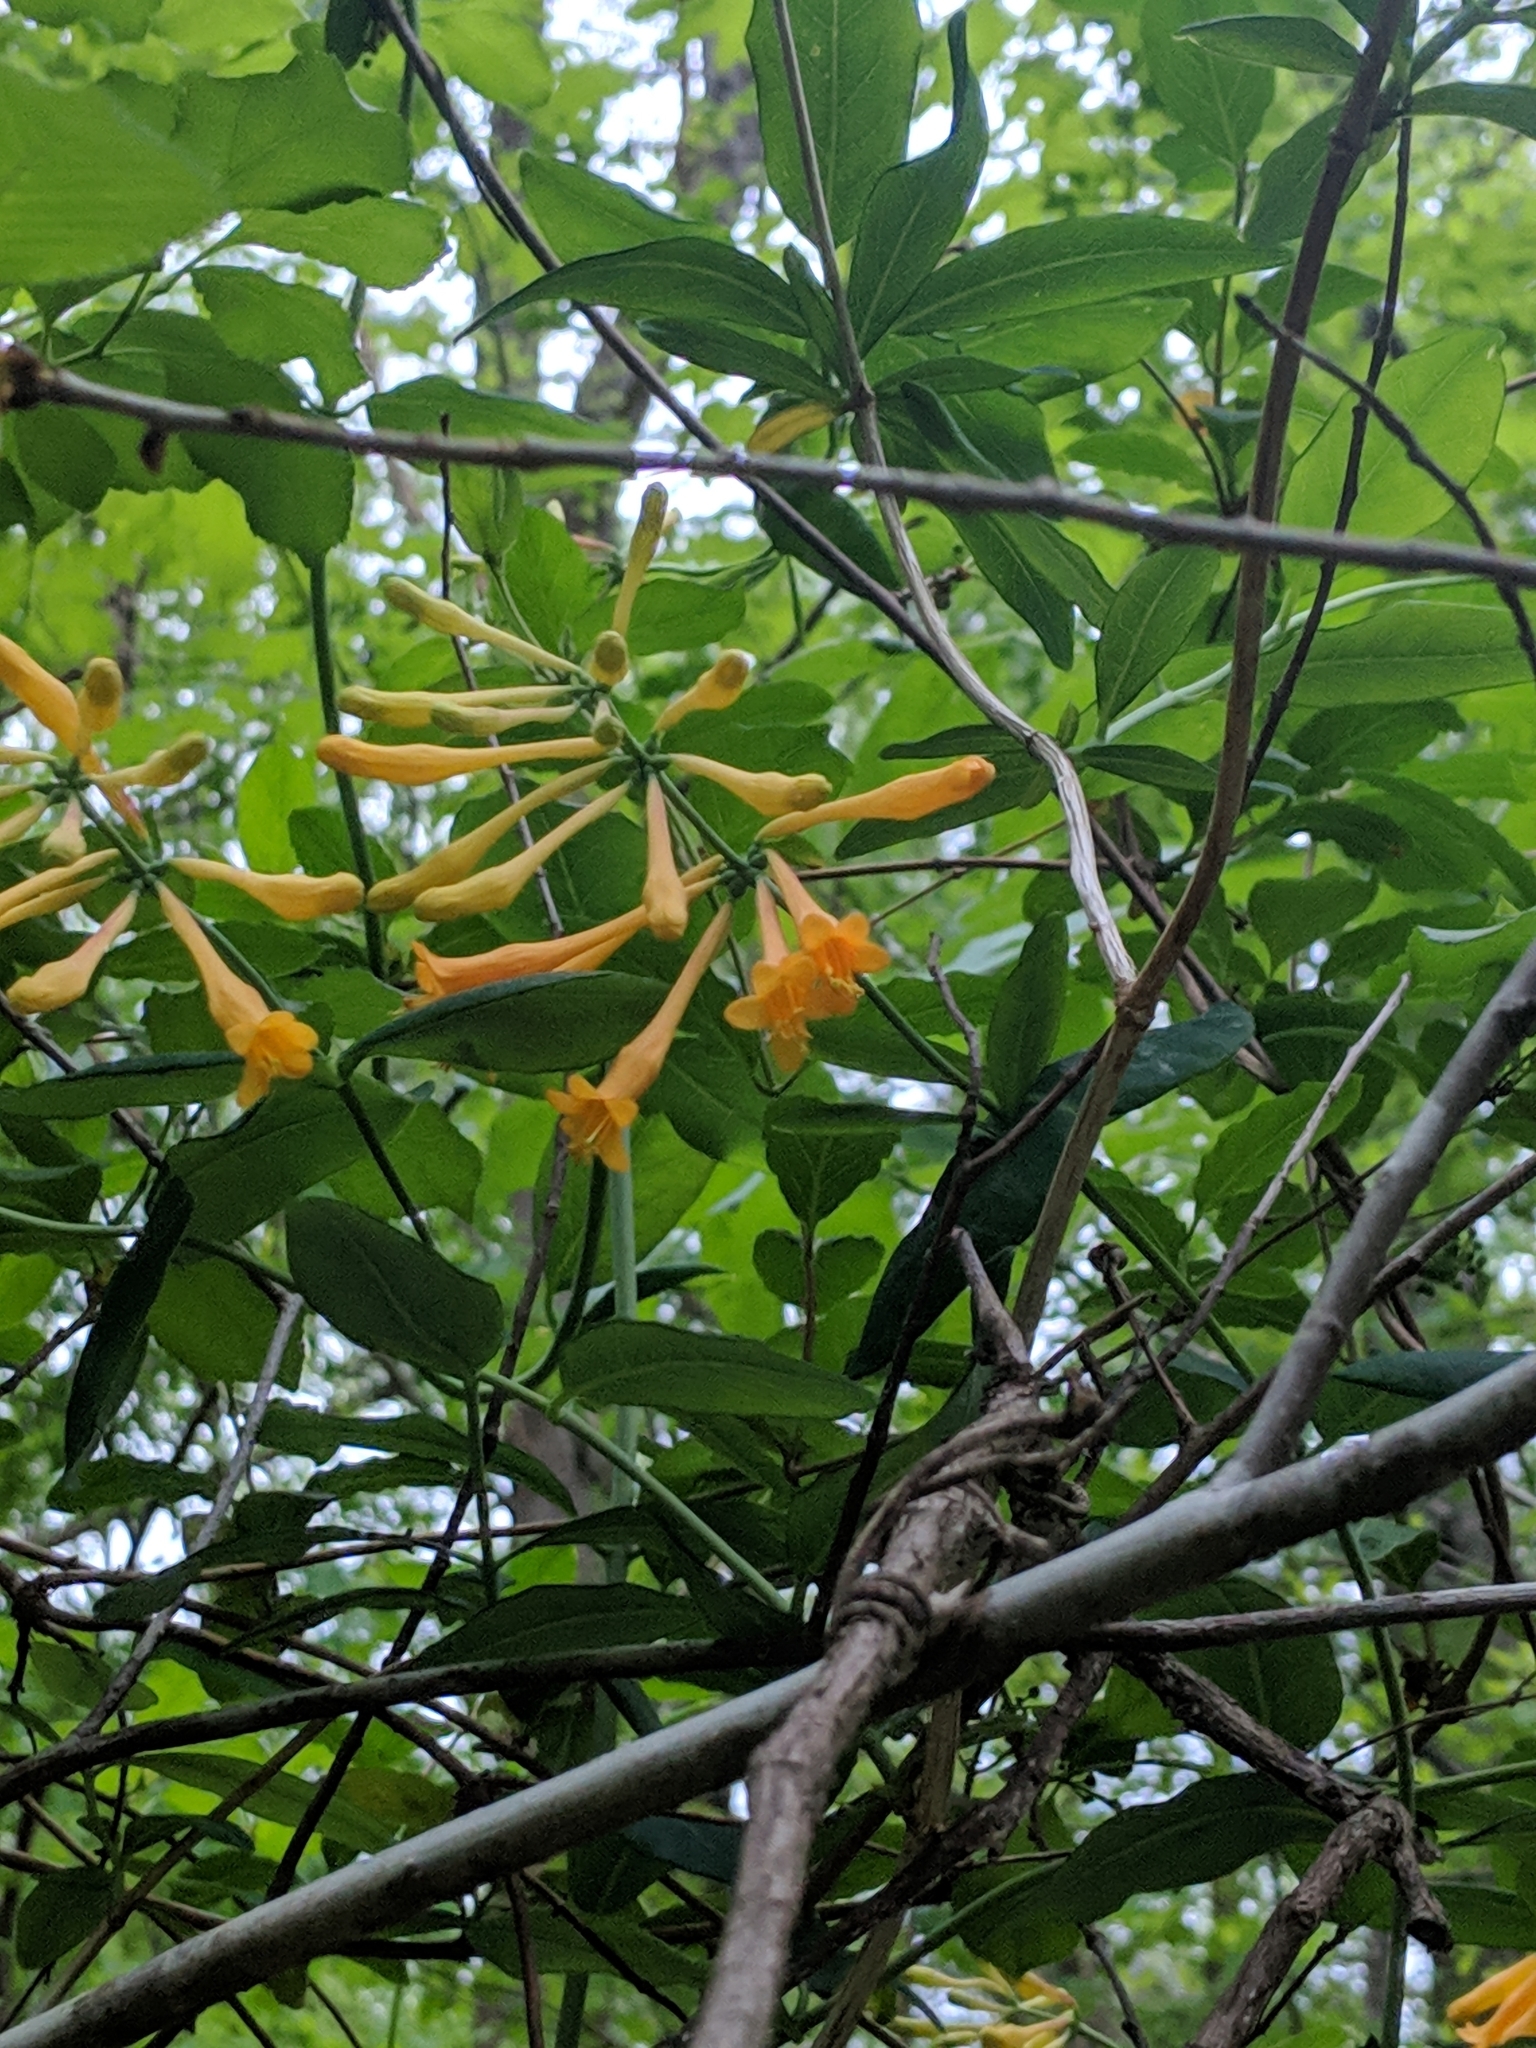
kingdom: Plantae
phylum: Tracheophyta
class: Magnoliopsida
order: Dipsacales
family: Caprifoliaceae
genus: Lonicera
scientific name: Lonicera sempervirens
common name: Coral honeysuckle
